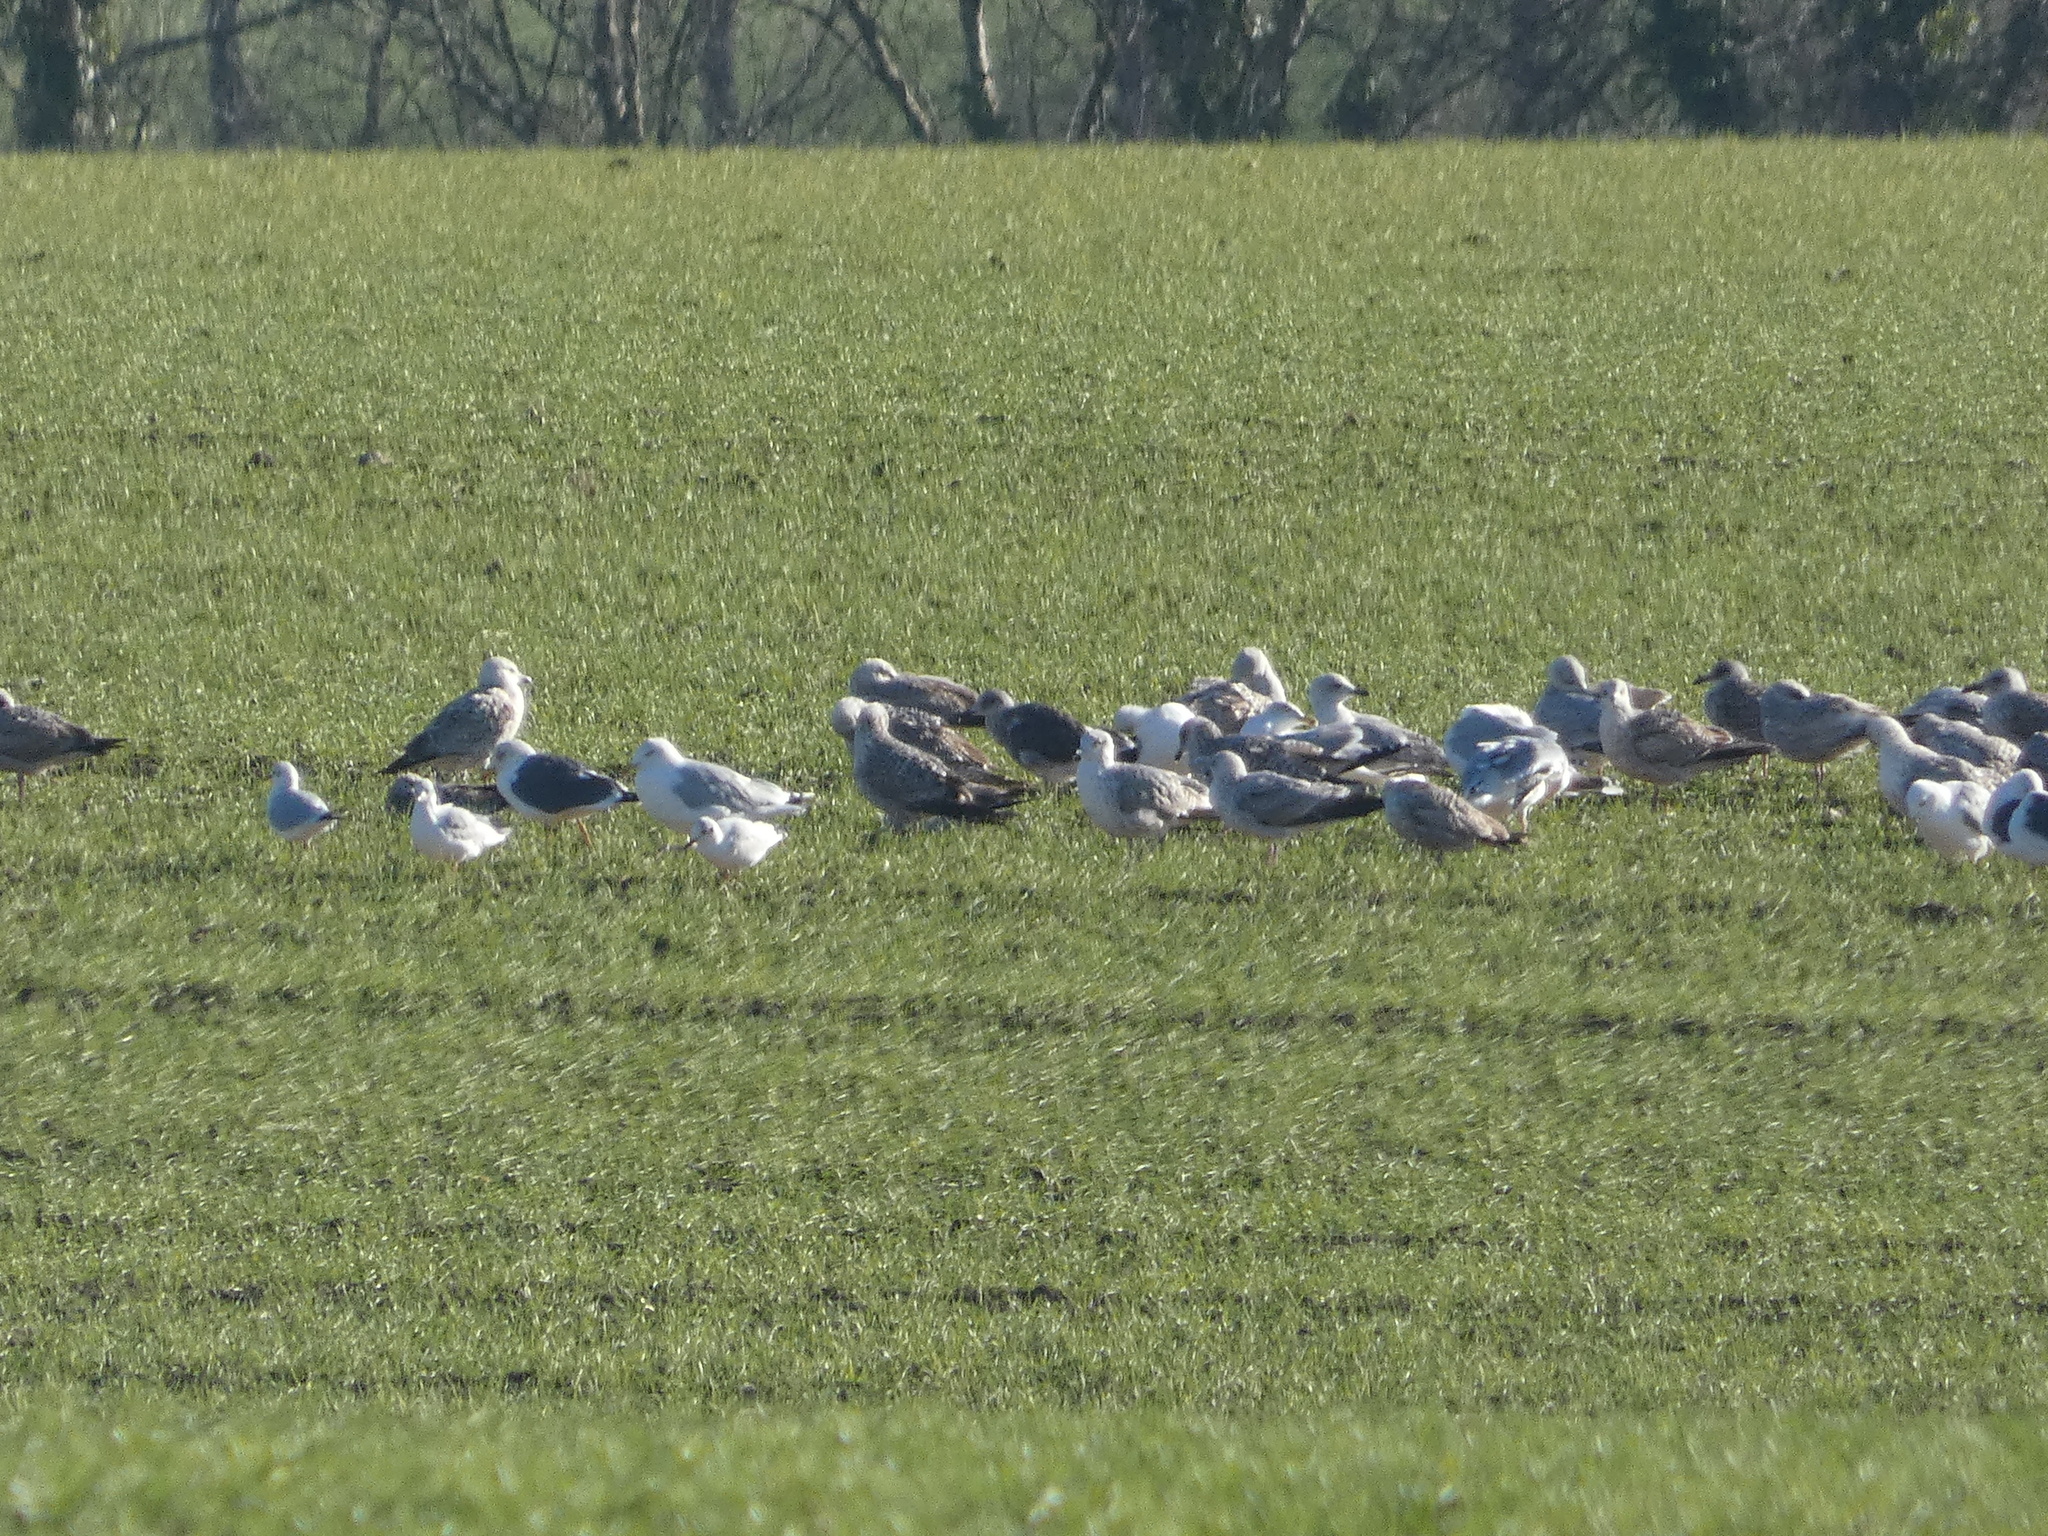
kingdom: Animalia
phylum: Chordata
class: Aves
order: Charadriiformes
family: Laridae
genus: Larus
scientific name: Larus fuscus
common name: Lesser black-backed gull
